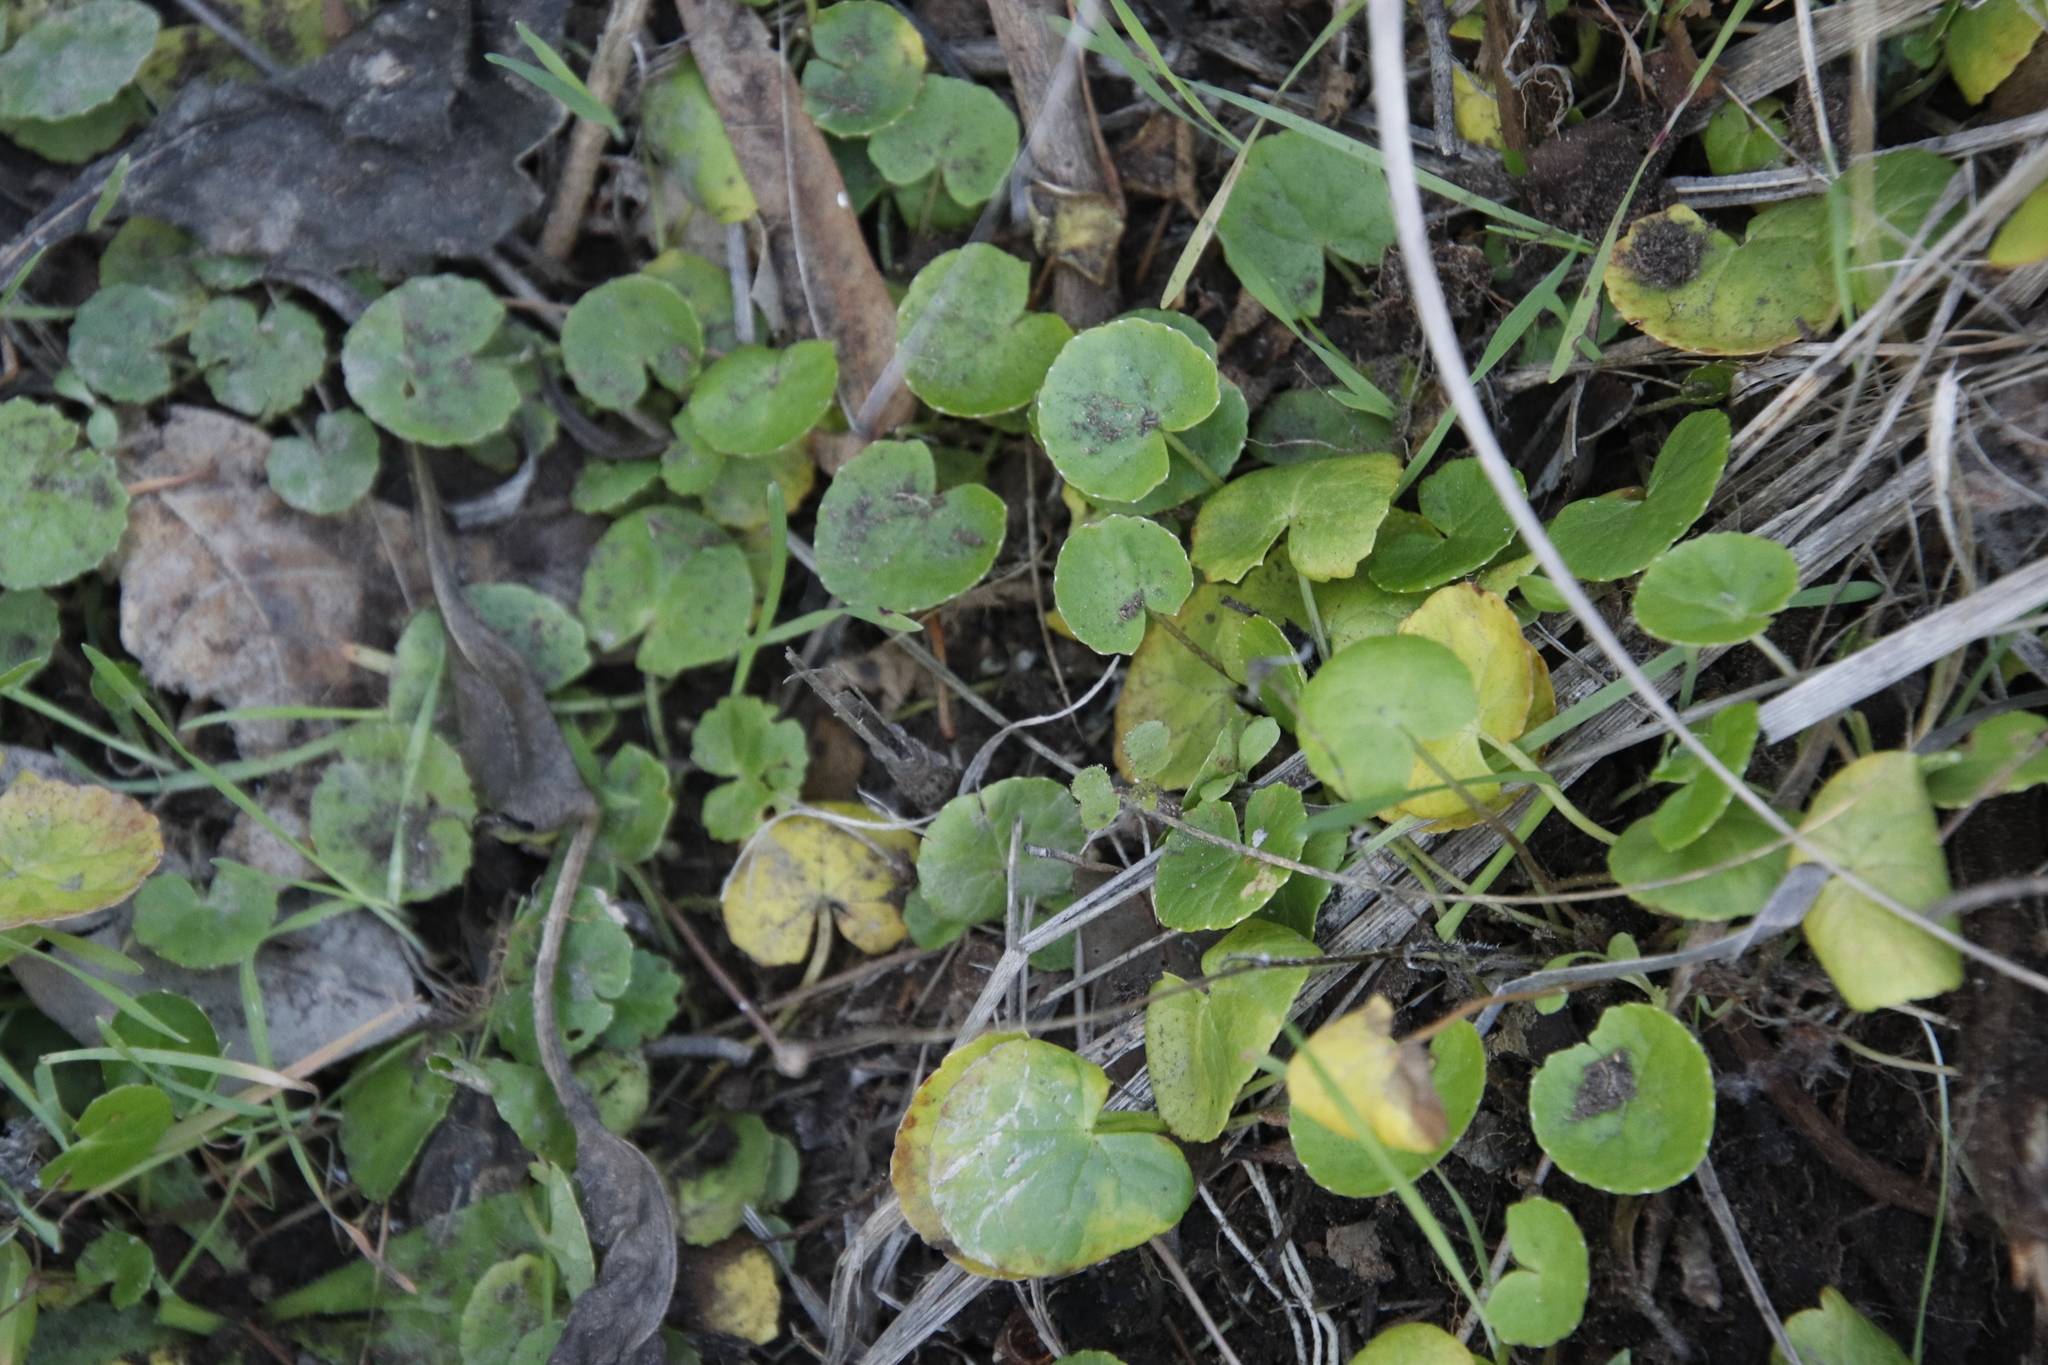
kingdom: Plantae
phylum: Tracheophyta
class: Magnoliopsida
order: Apiales
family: Araliaceae
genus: Hydrocotyle
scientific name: Hydrocotyle verticillata
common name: Whorled marshpennywort
